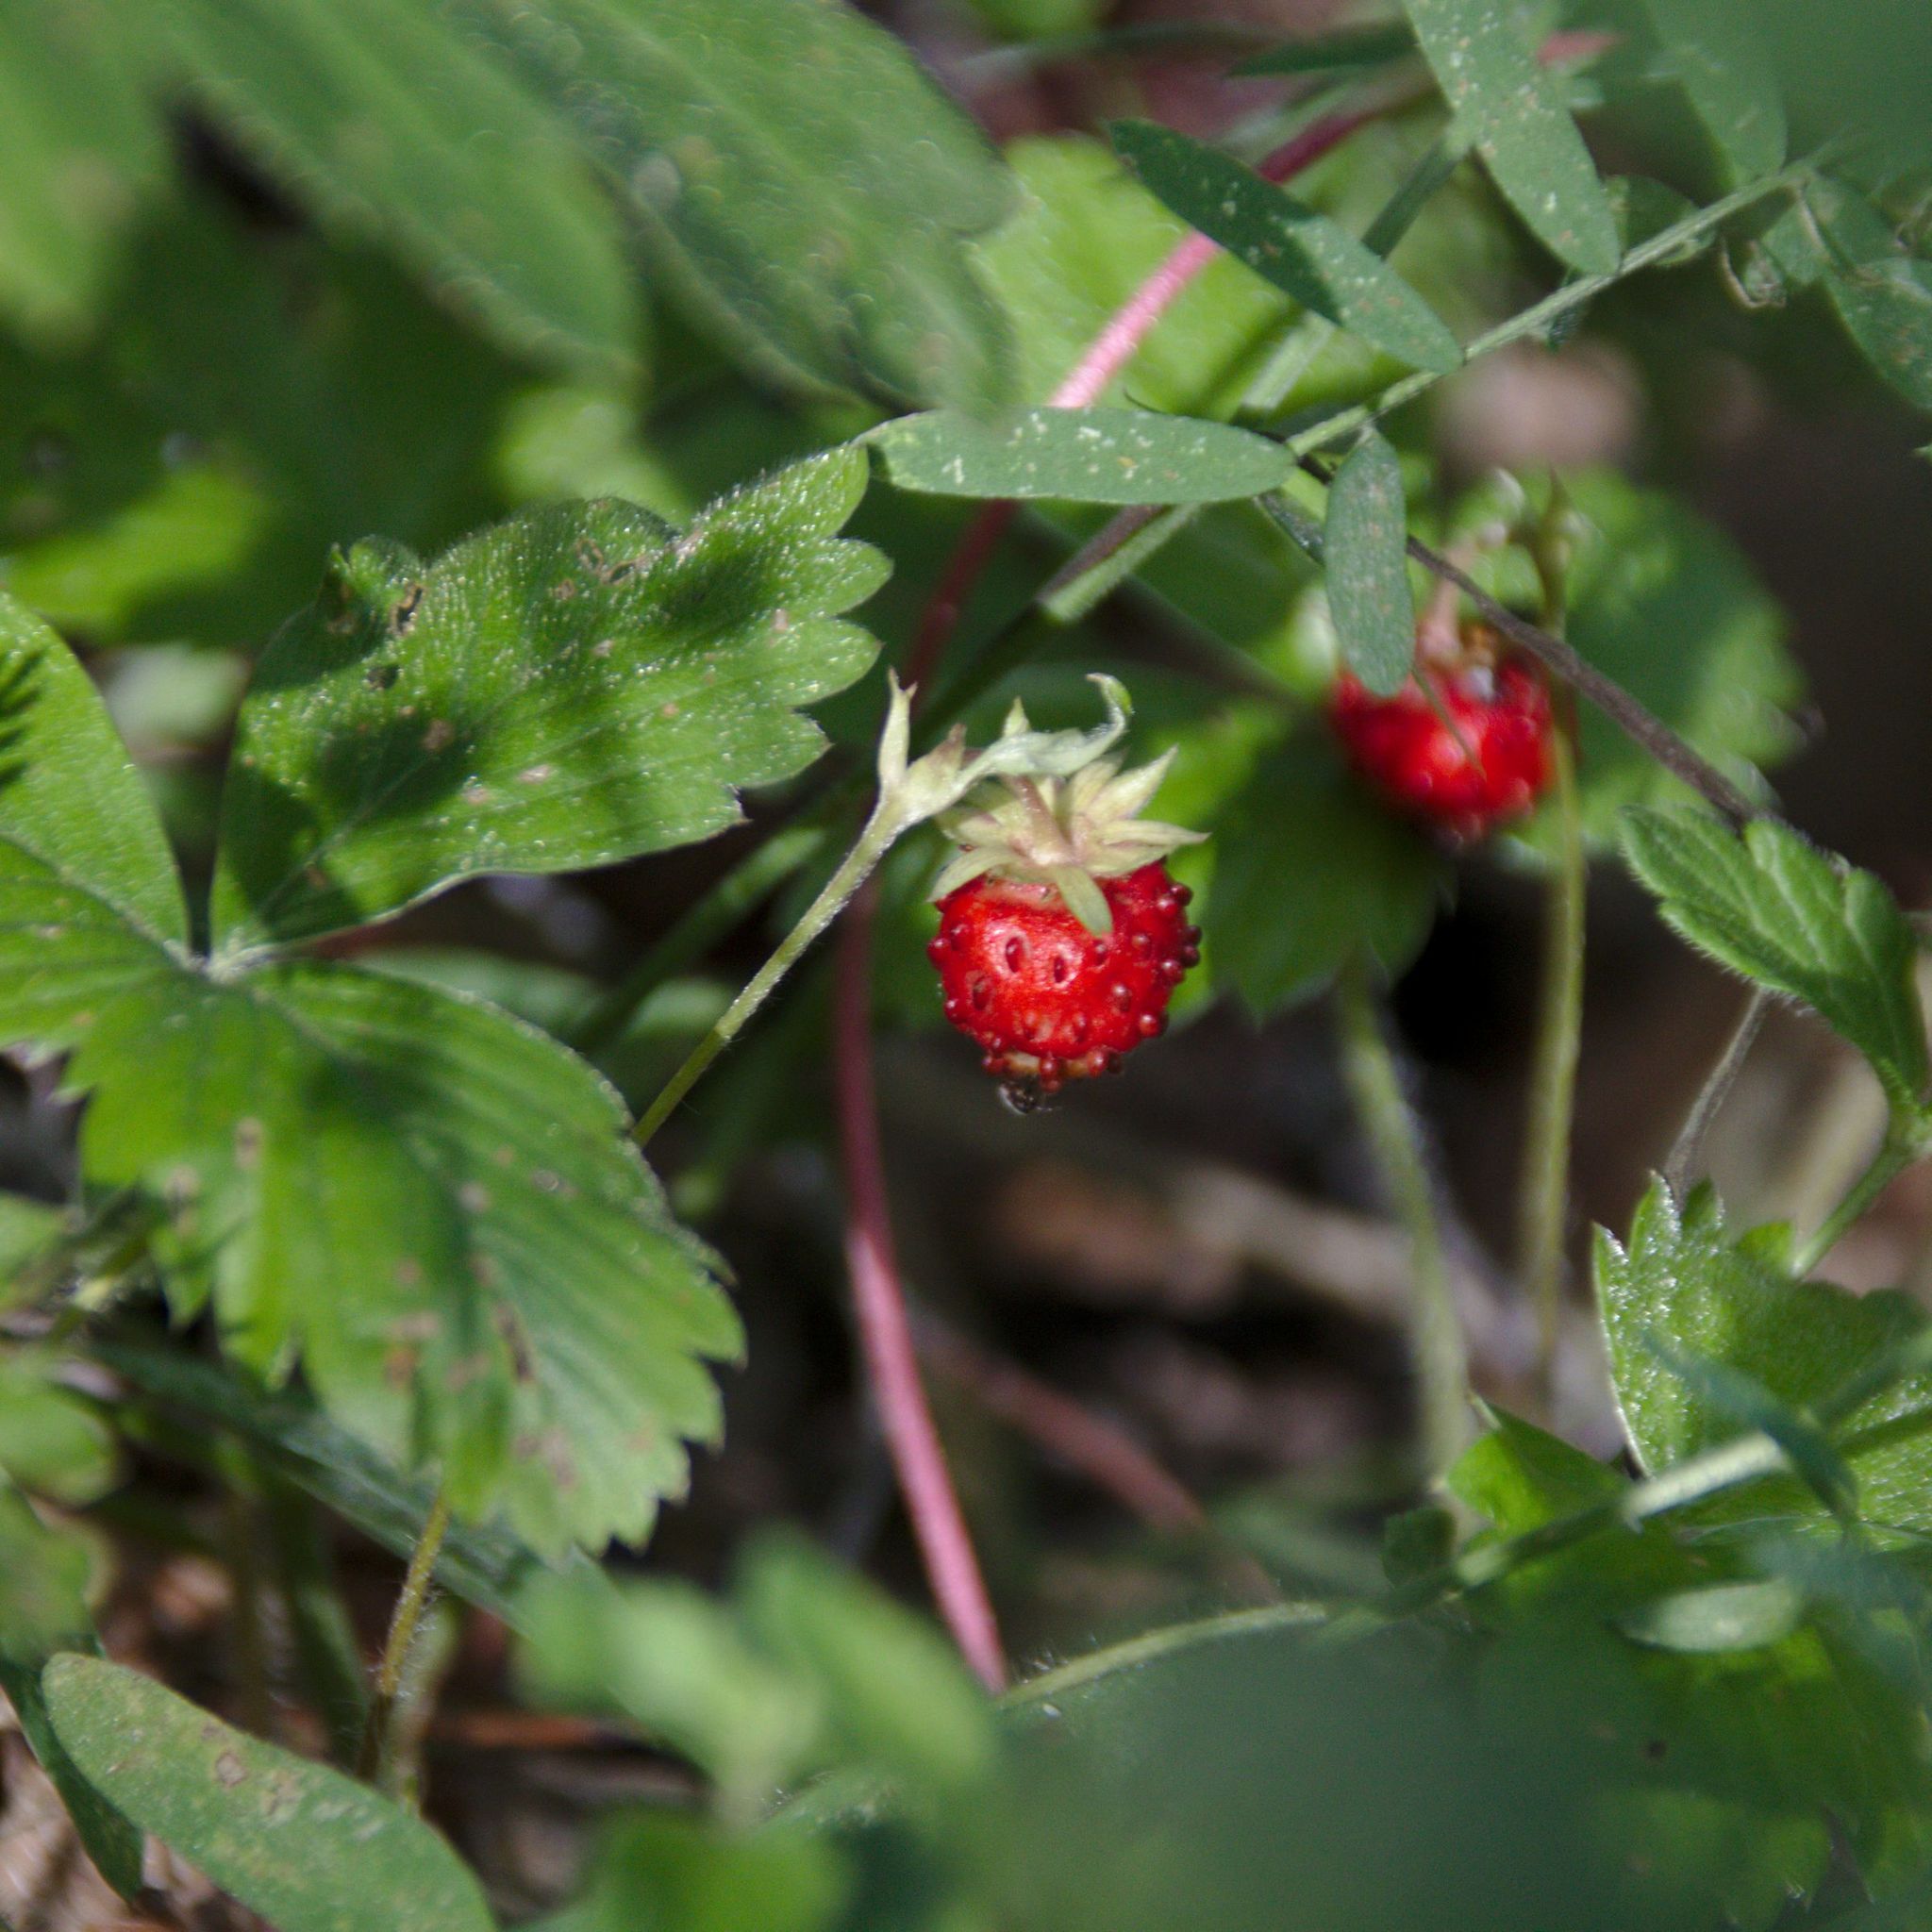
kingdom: Plantae
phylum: Tracheophyta
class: Magnoliopsida
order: Rosales
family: Rosaceae
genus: Fragaria
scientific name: Fragaria vesca
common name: Wild strawberry
